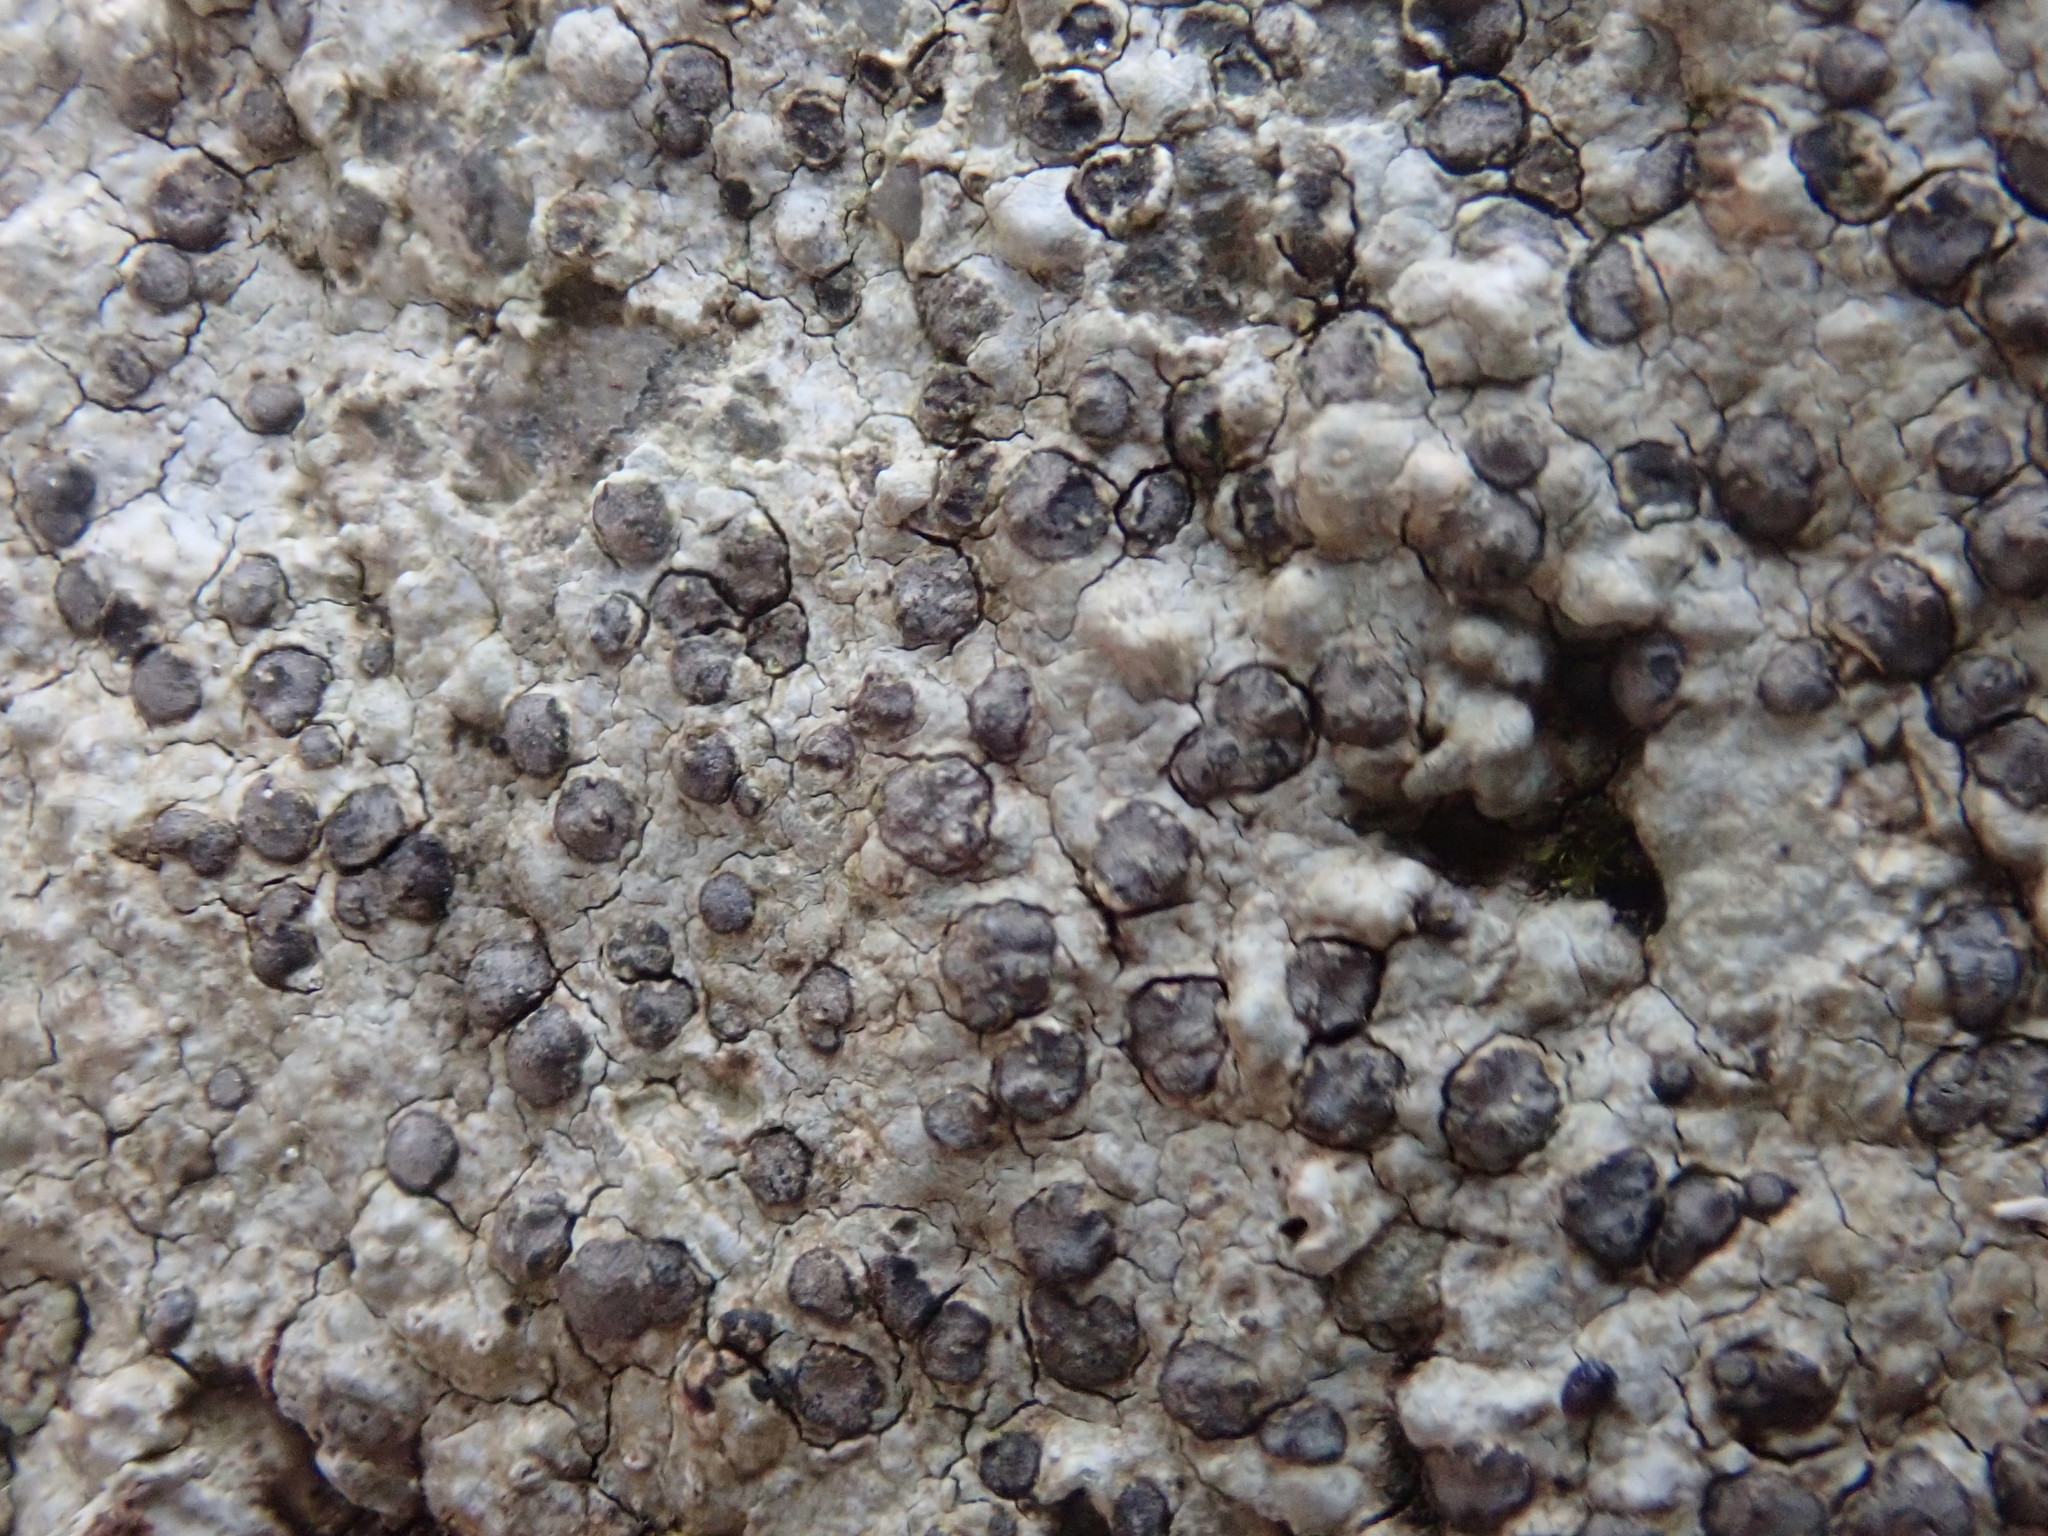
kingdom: Fungi
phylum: Ascomycota
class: Lecanoromycetes
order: Lecideales
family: Lecideaceae
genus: Porpidia
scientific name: Porpidia albocaerulescens
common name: Smokey-eyed boulder lichen
